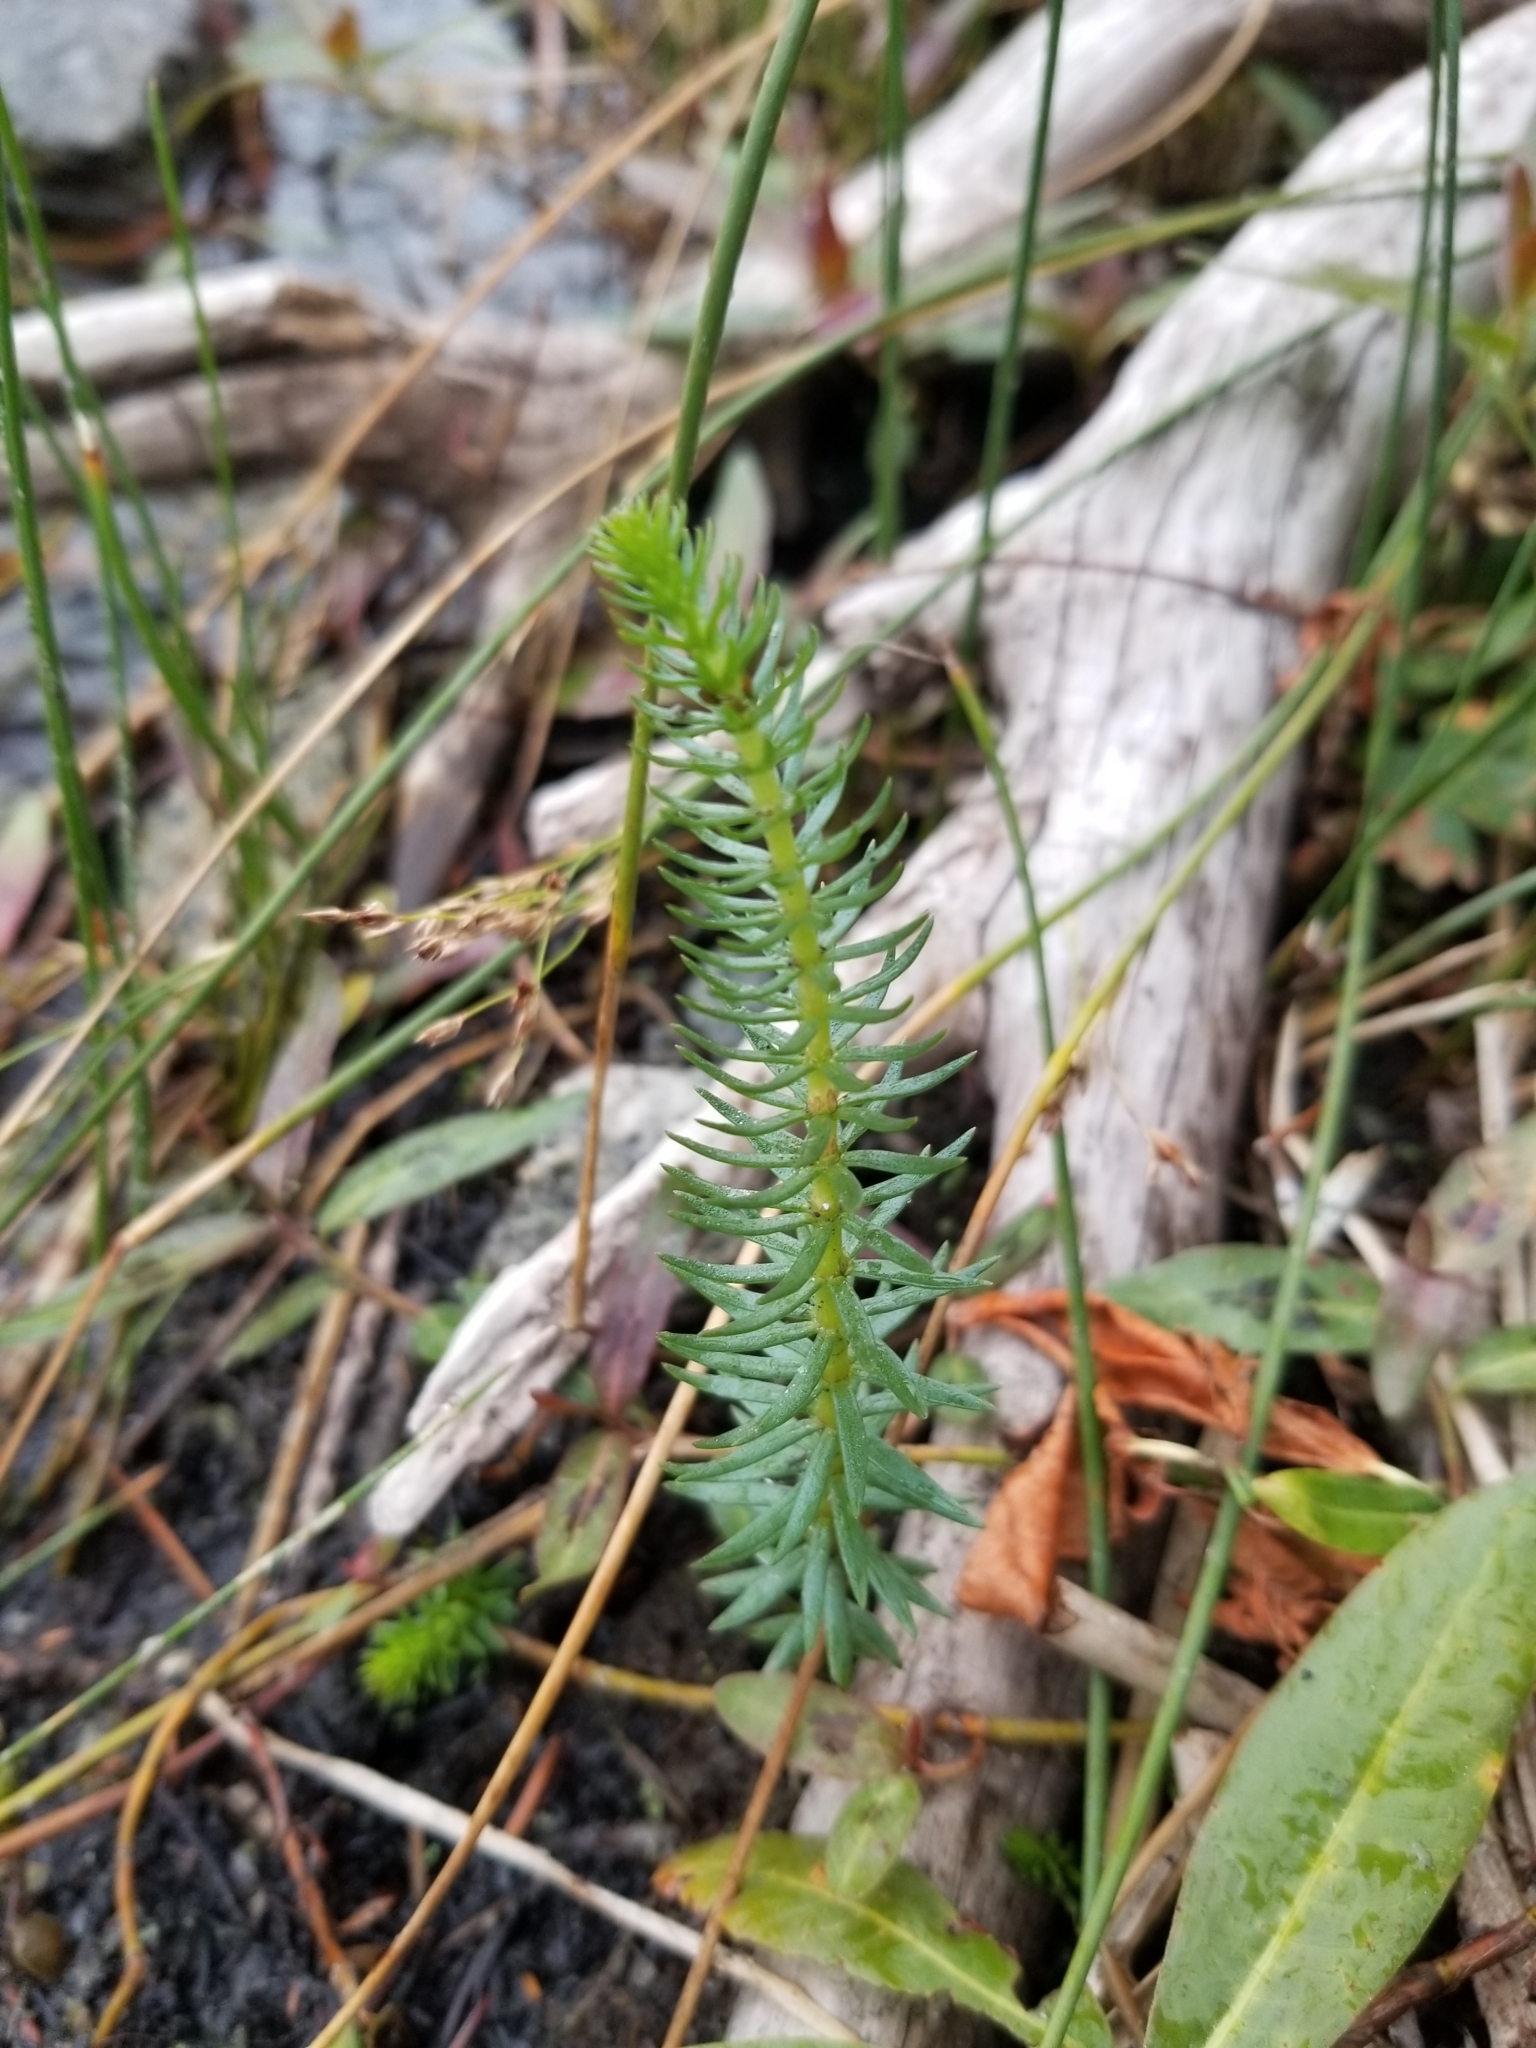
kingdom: Plantae
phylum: Tracheophyta
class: Magnoliopsida
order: Lamiales
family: Plantaginaceae
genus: Hippuris
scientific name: Hippuris vulgaris
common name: Mare's-tail
